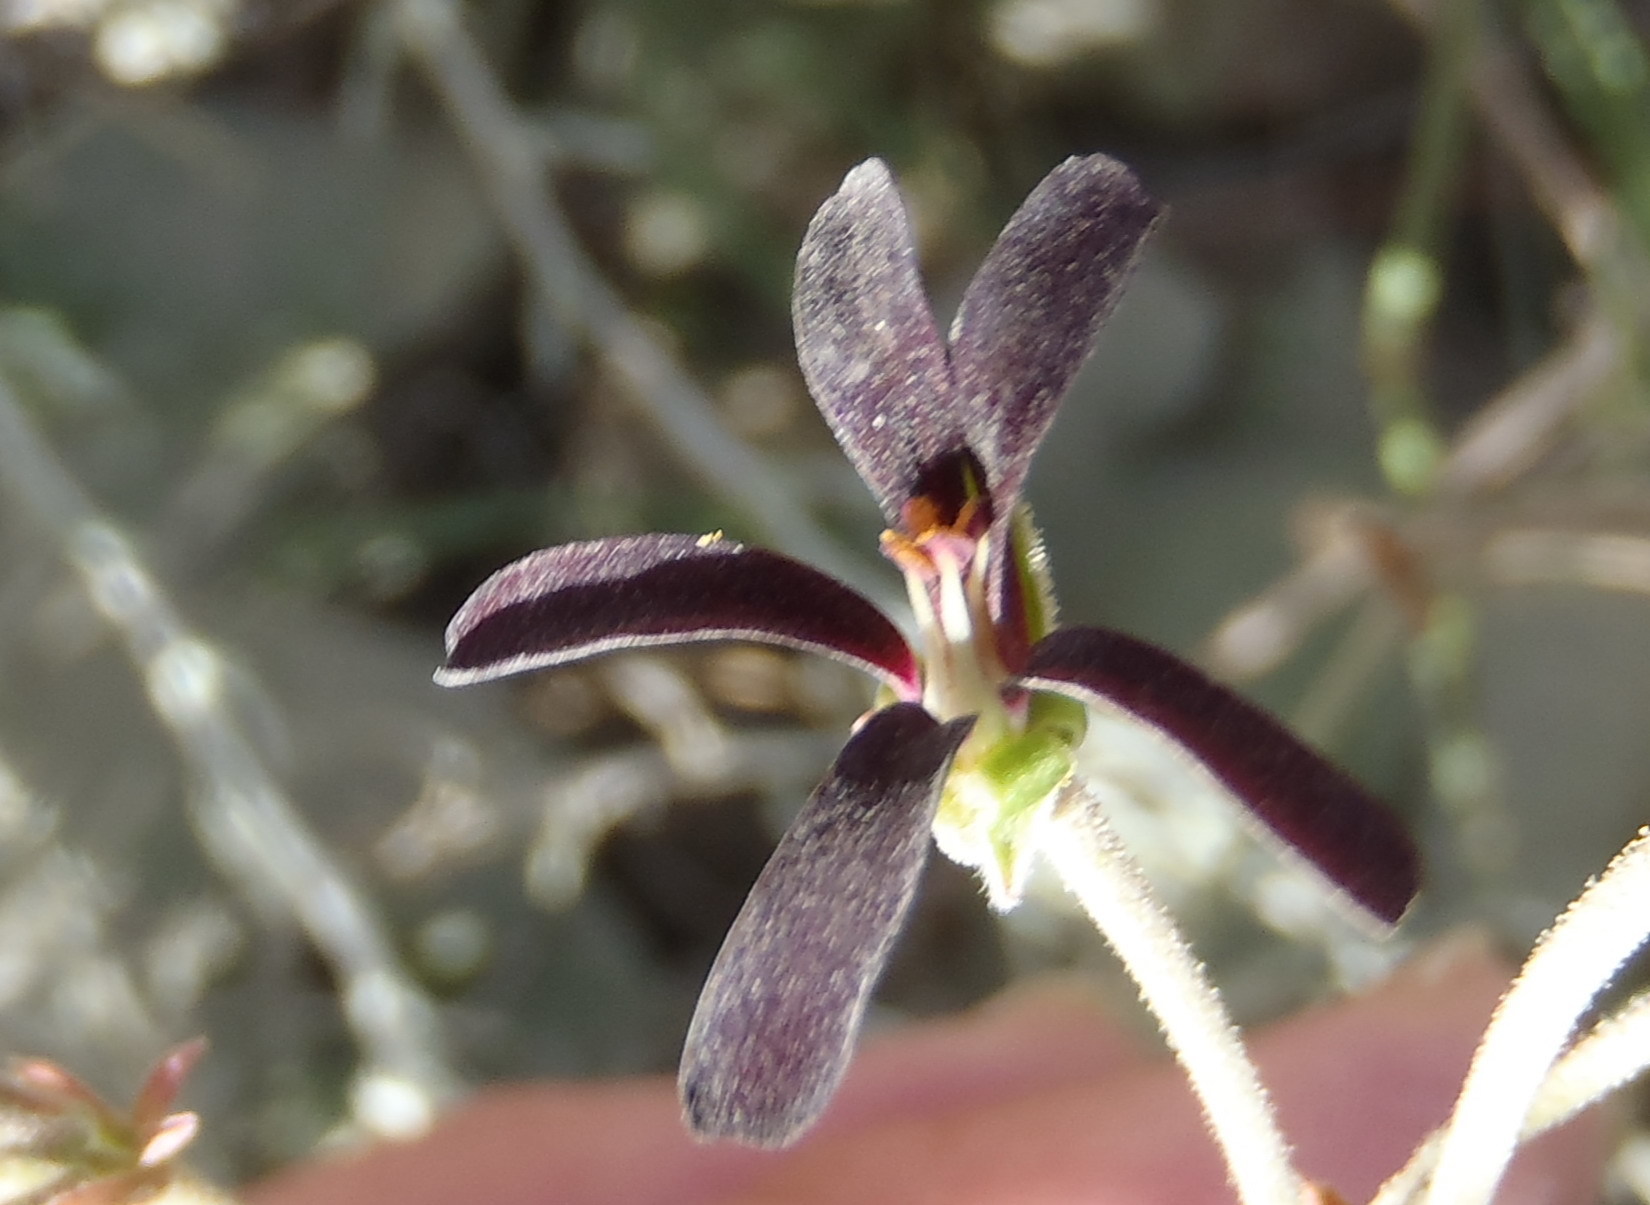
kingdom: Plantae
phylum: Tracheophyta
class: Magnoliopsida
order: Geraniales
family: Geraniaceae
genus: Pelargonium
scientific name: Pelargonium sidoides
